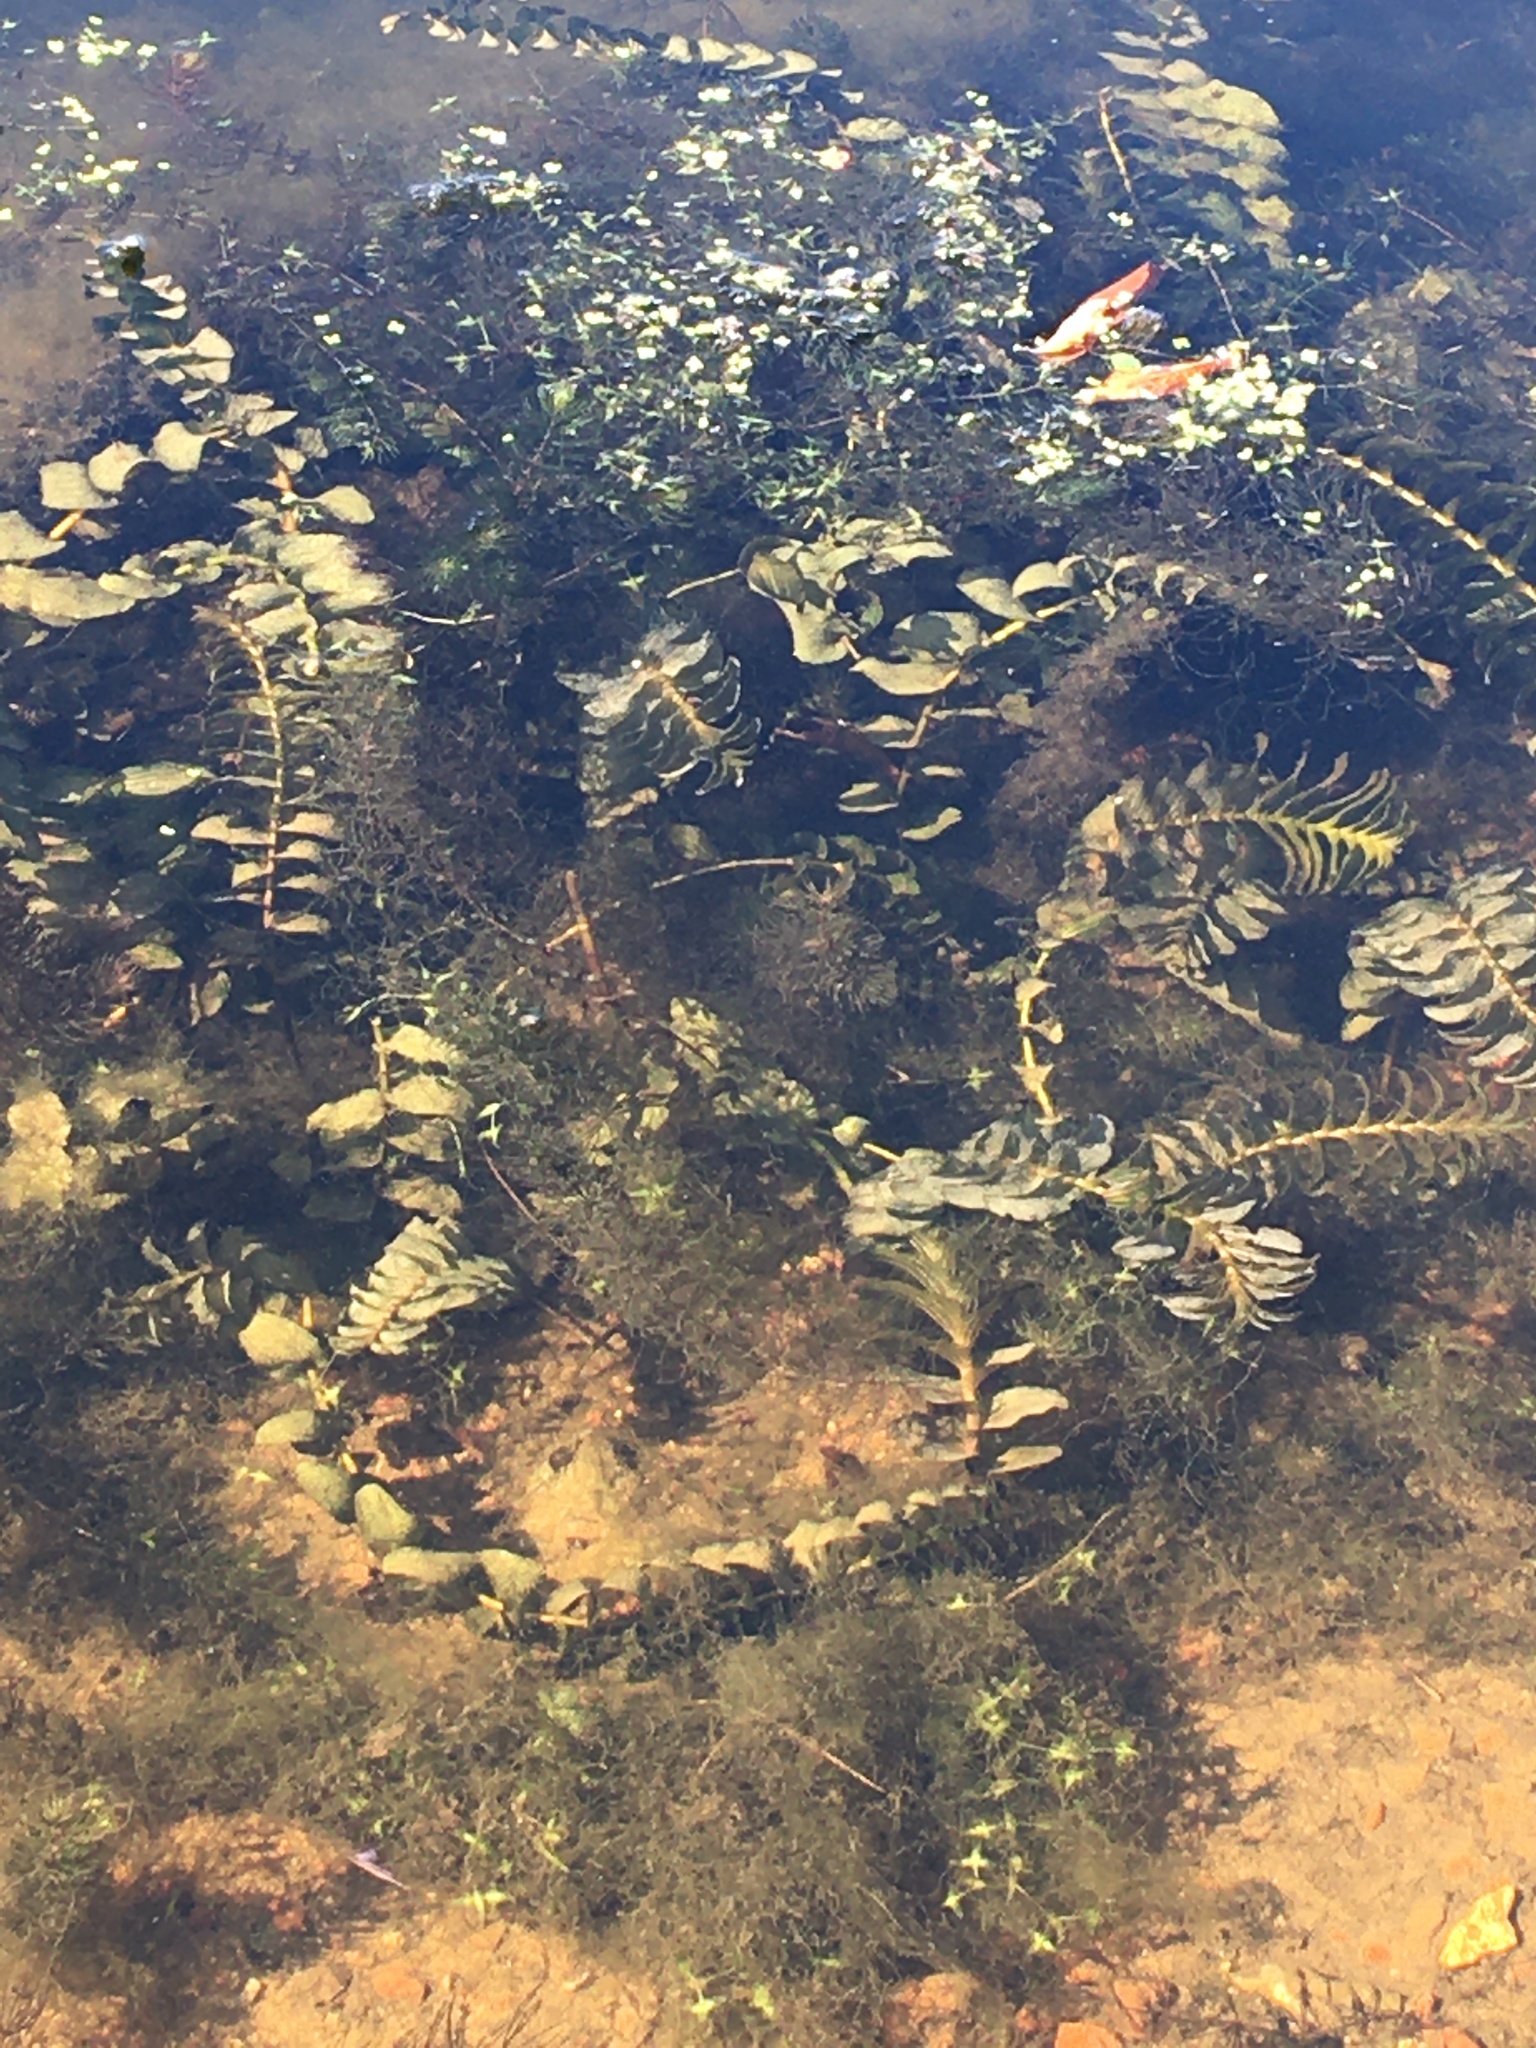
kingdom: Plantae
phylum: Tracheophyta
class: Liliopsida
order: Alismatales
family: Potamogetonaceae
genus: Potamogeton
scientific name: Potamogeton perfoliatus
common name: Perfoliate pondweed
